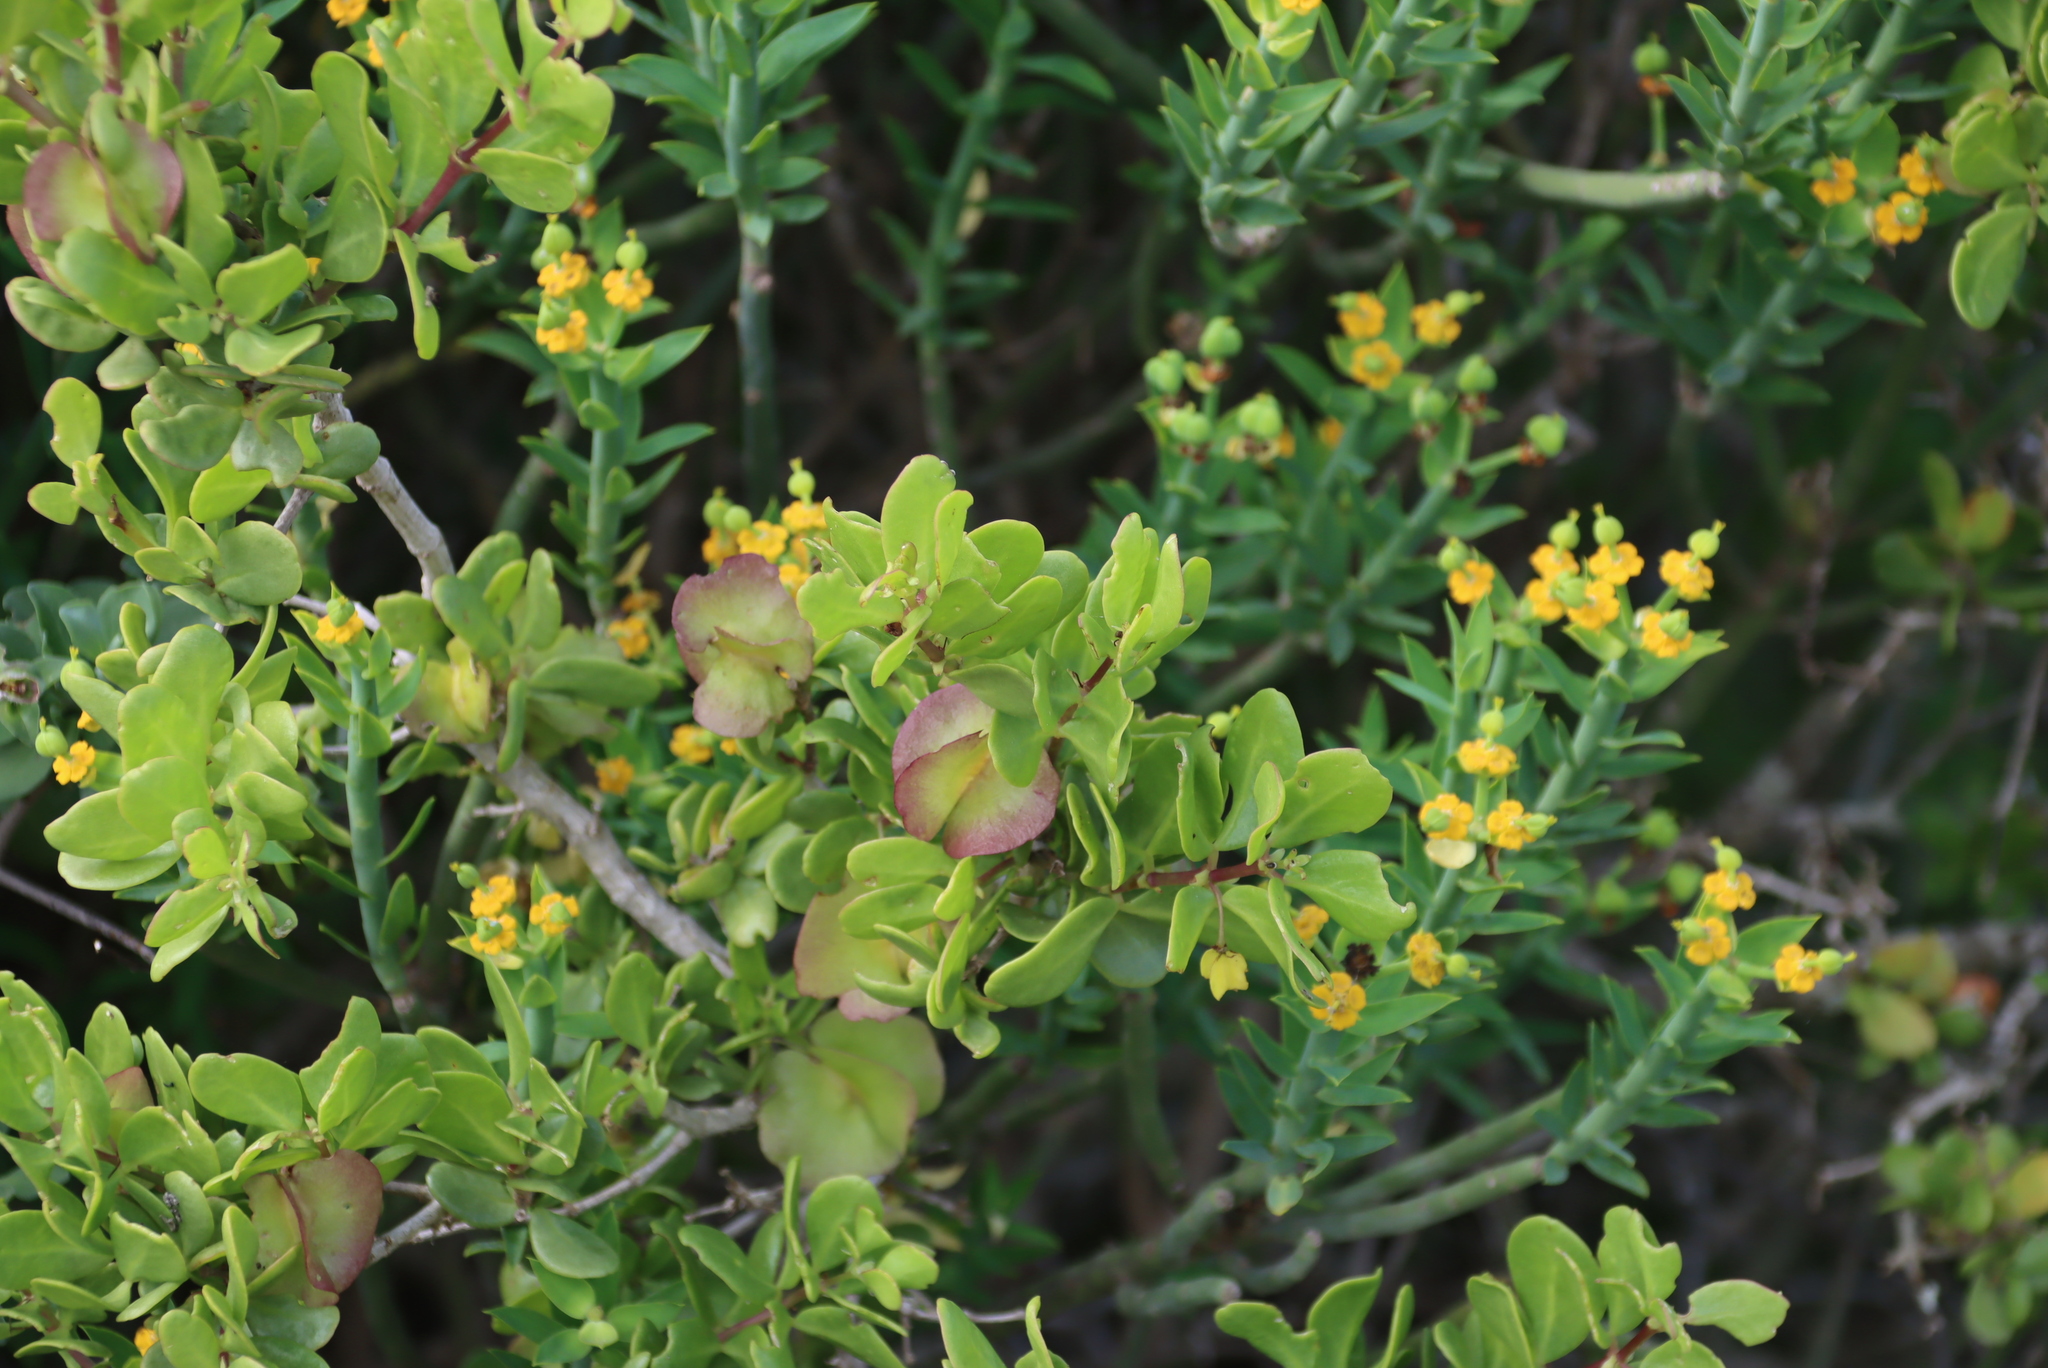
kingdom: Plantae
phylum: Tracheophyta
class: Magnoliopsida
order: Zygophyllales
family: Zygophyllaceae
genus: Roepera
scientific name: Roepera morgsana
